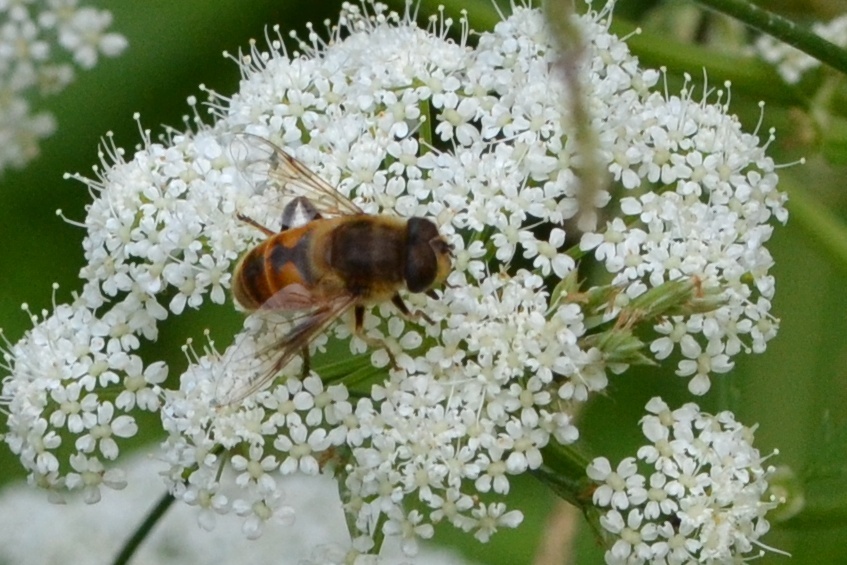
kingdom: Animalia
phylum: Arthropoda
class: Insecta
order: Diptera
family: Syrphidae
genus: Eristalis
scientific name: Eristalis tenax
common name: Drone fly
